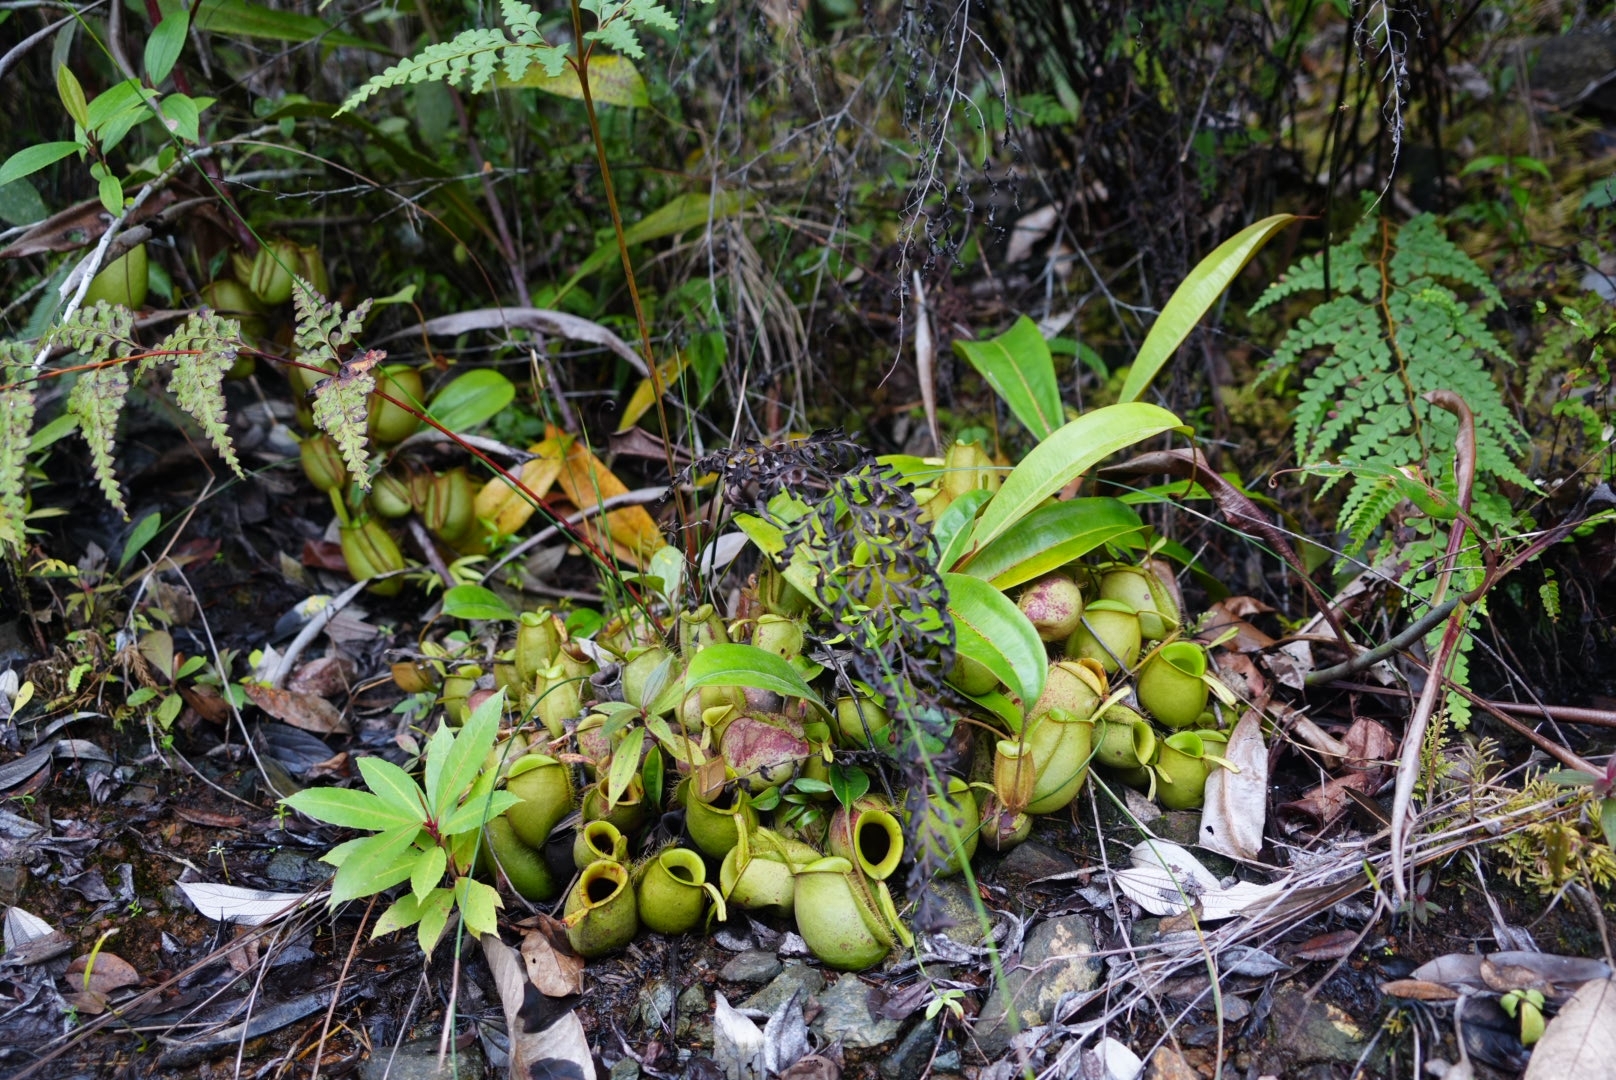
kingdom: Plantae
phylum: Tracheophyta
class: Magnoliopsida
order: Caryophyllales
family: Nepenthaceae
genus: Nepenthes
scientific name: Nepenthes ampullaria
